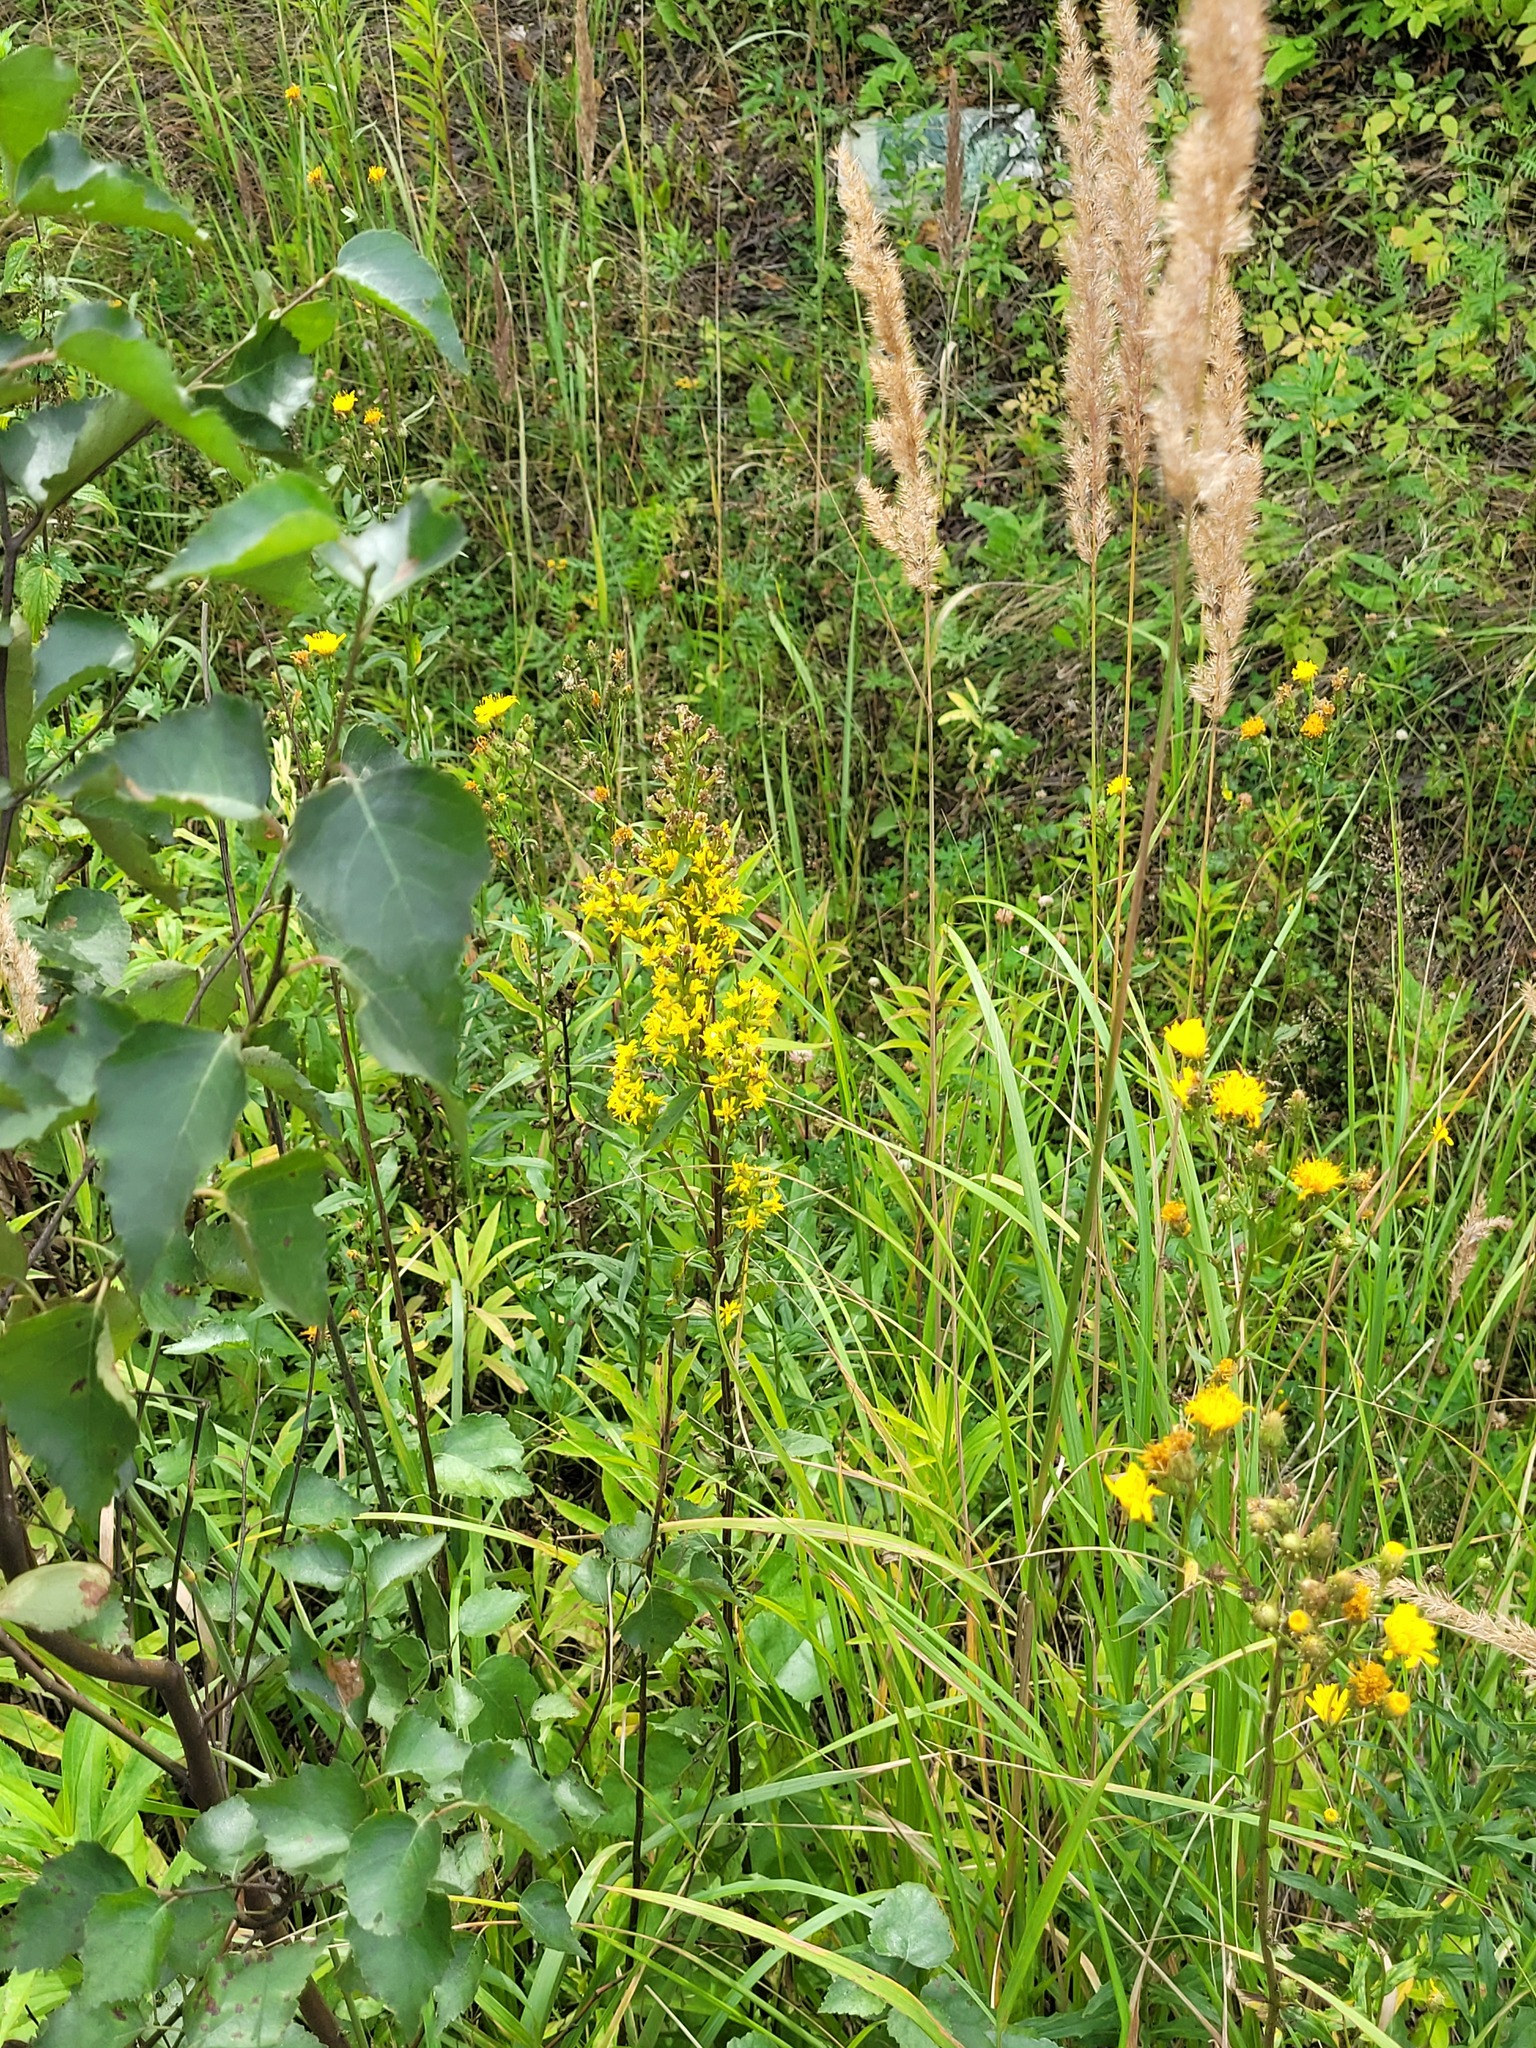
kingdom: Plantae
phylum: Tracheophyta
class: Magnoliopsida
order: Asterales
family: Asteraceae
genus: Solidago
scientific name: Solidago virgaurea
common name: Goldenrod
